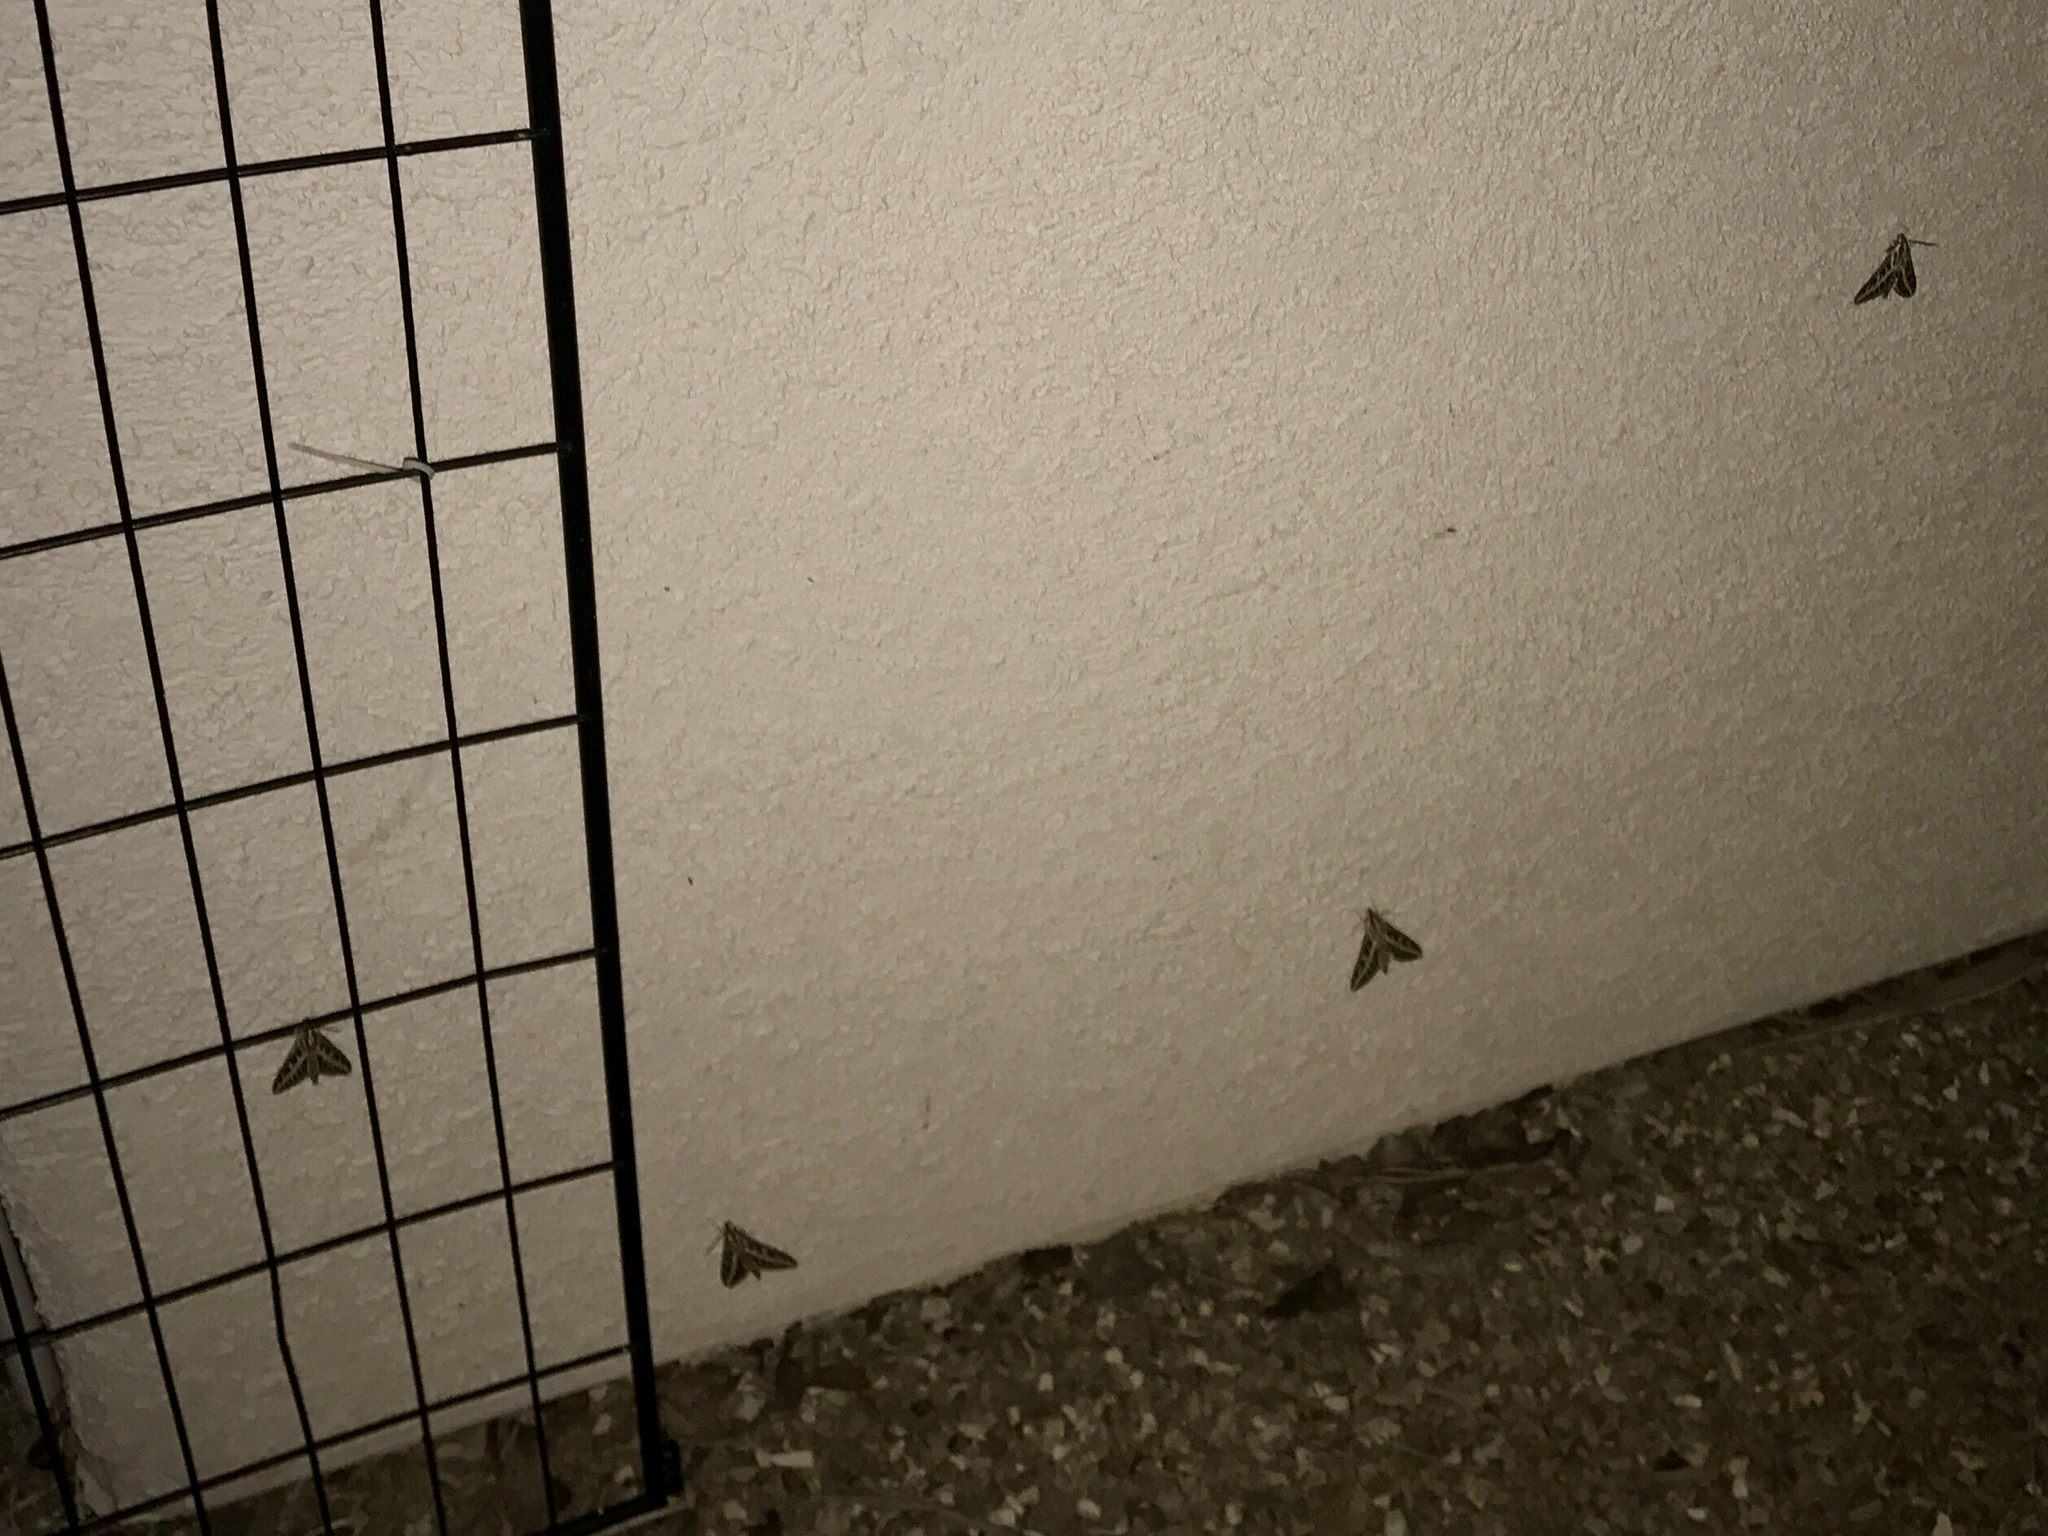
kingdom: Animalia
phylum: Arthropoda
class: Insecta
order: Lepidoptera
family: Sphingidae
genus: Hyles
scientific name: Hyles lineata
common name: White-lined sphinx
